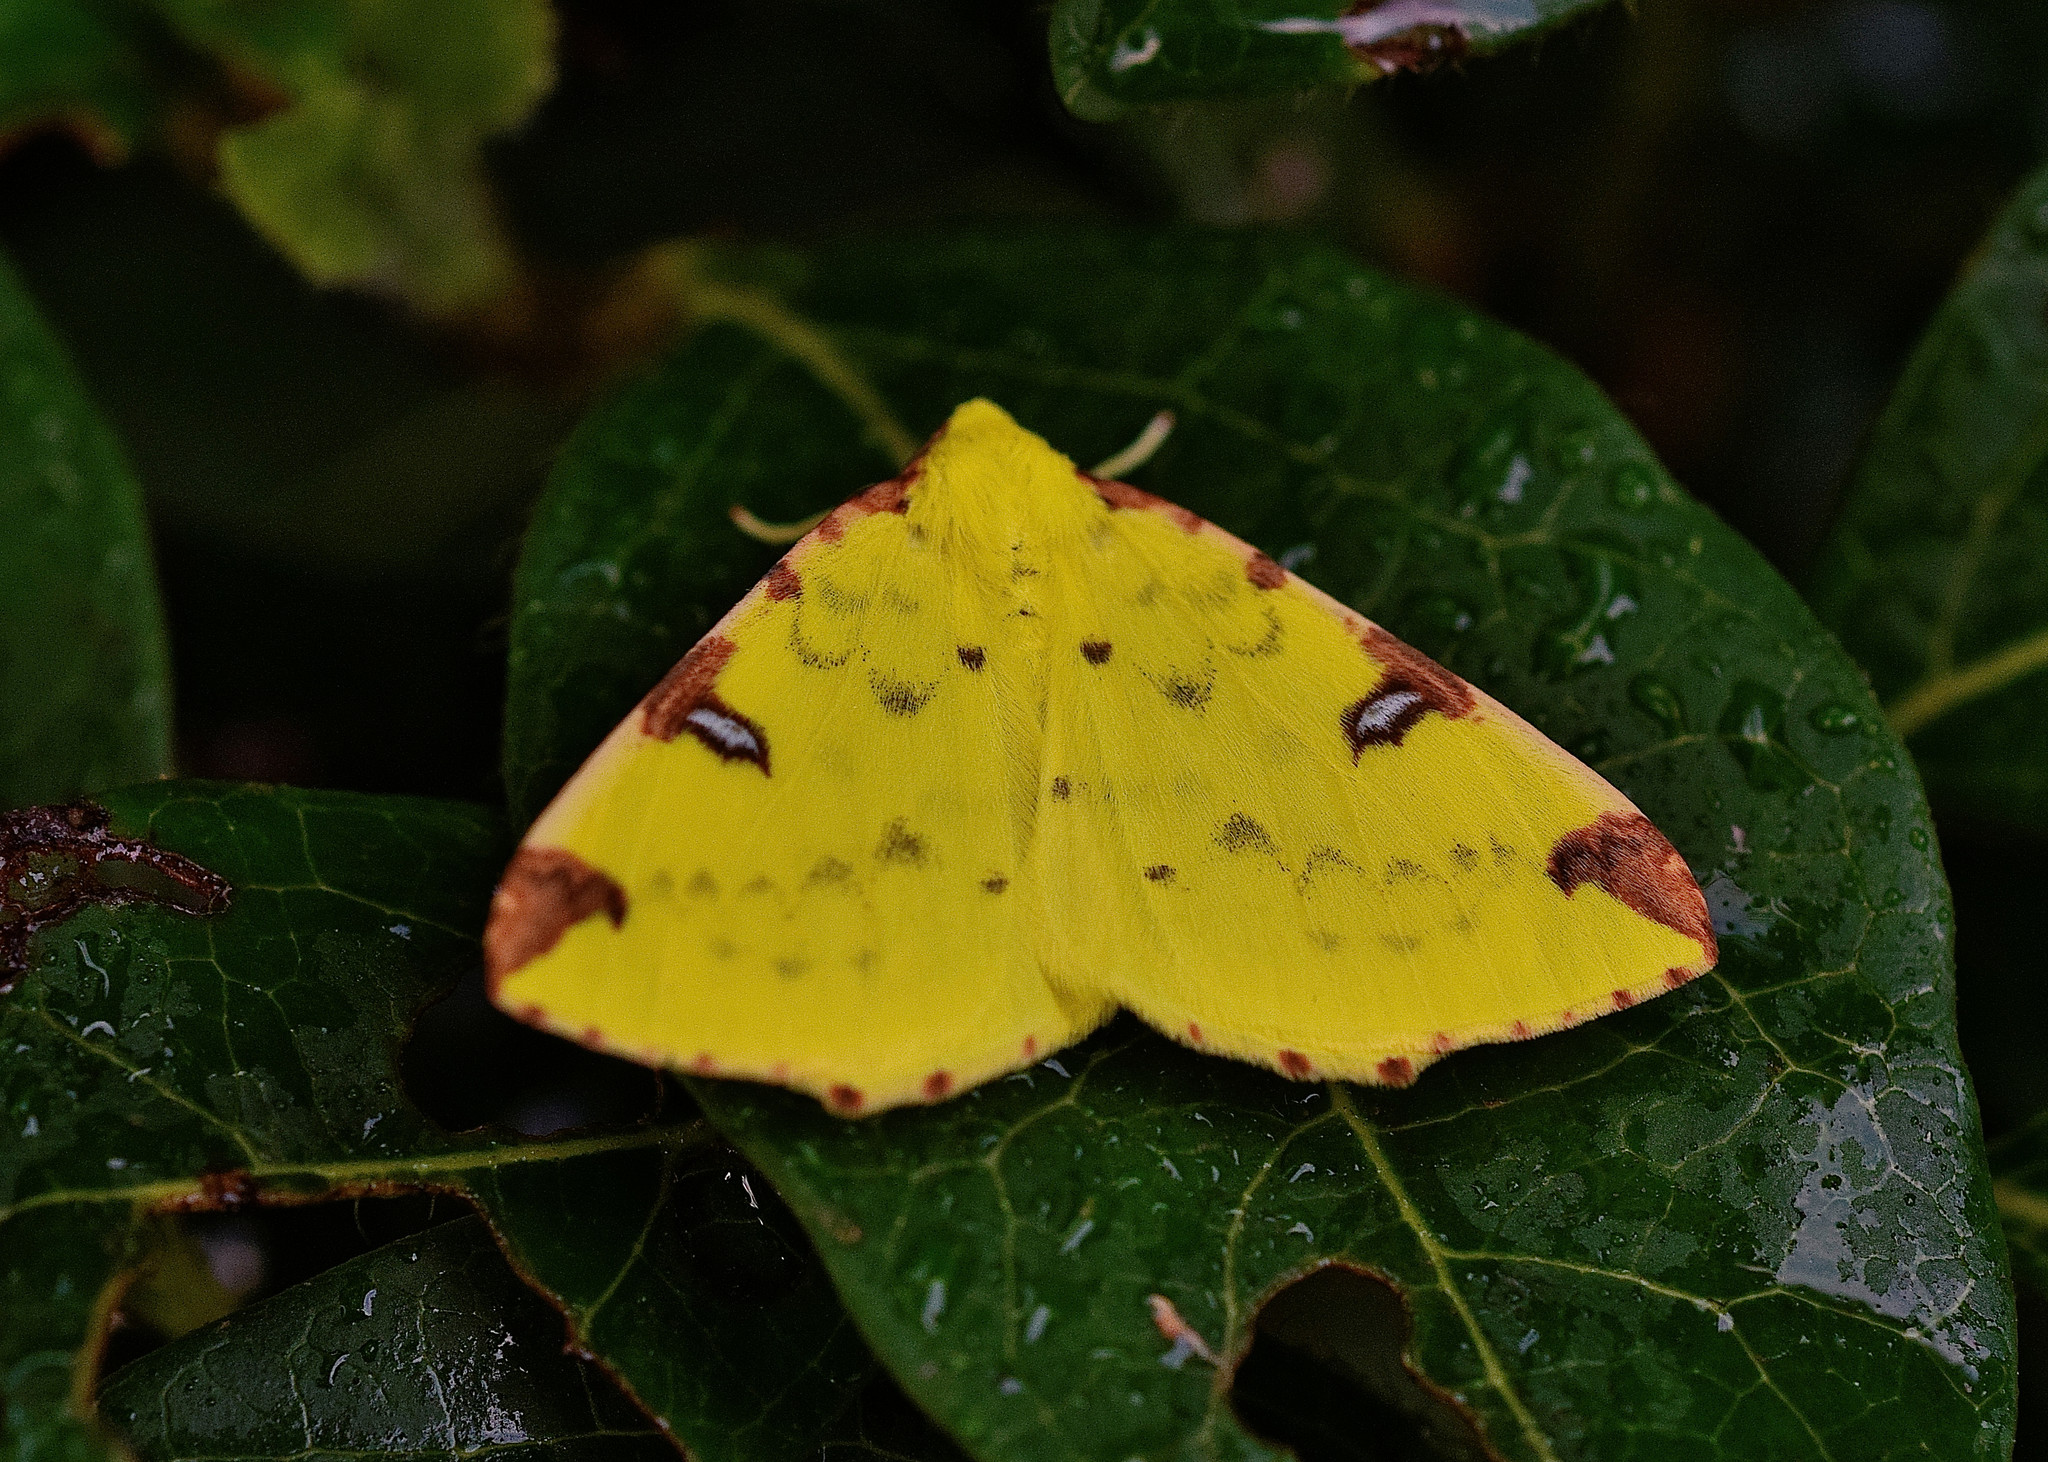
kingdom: Animalia
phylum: Arthropoda
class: Insecta
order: Lepidoptera
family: Geometridae
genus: Opisthograptis
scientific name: Opisthograptis luteolata
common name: Brimstone moth
